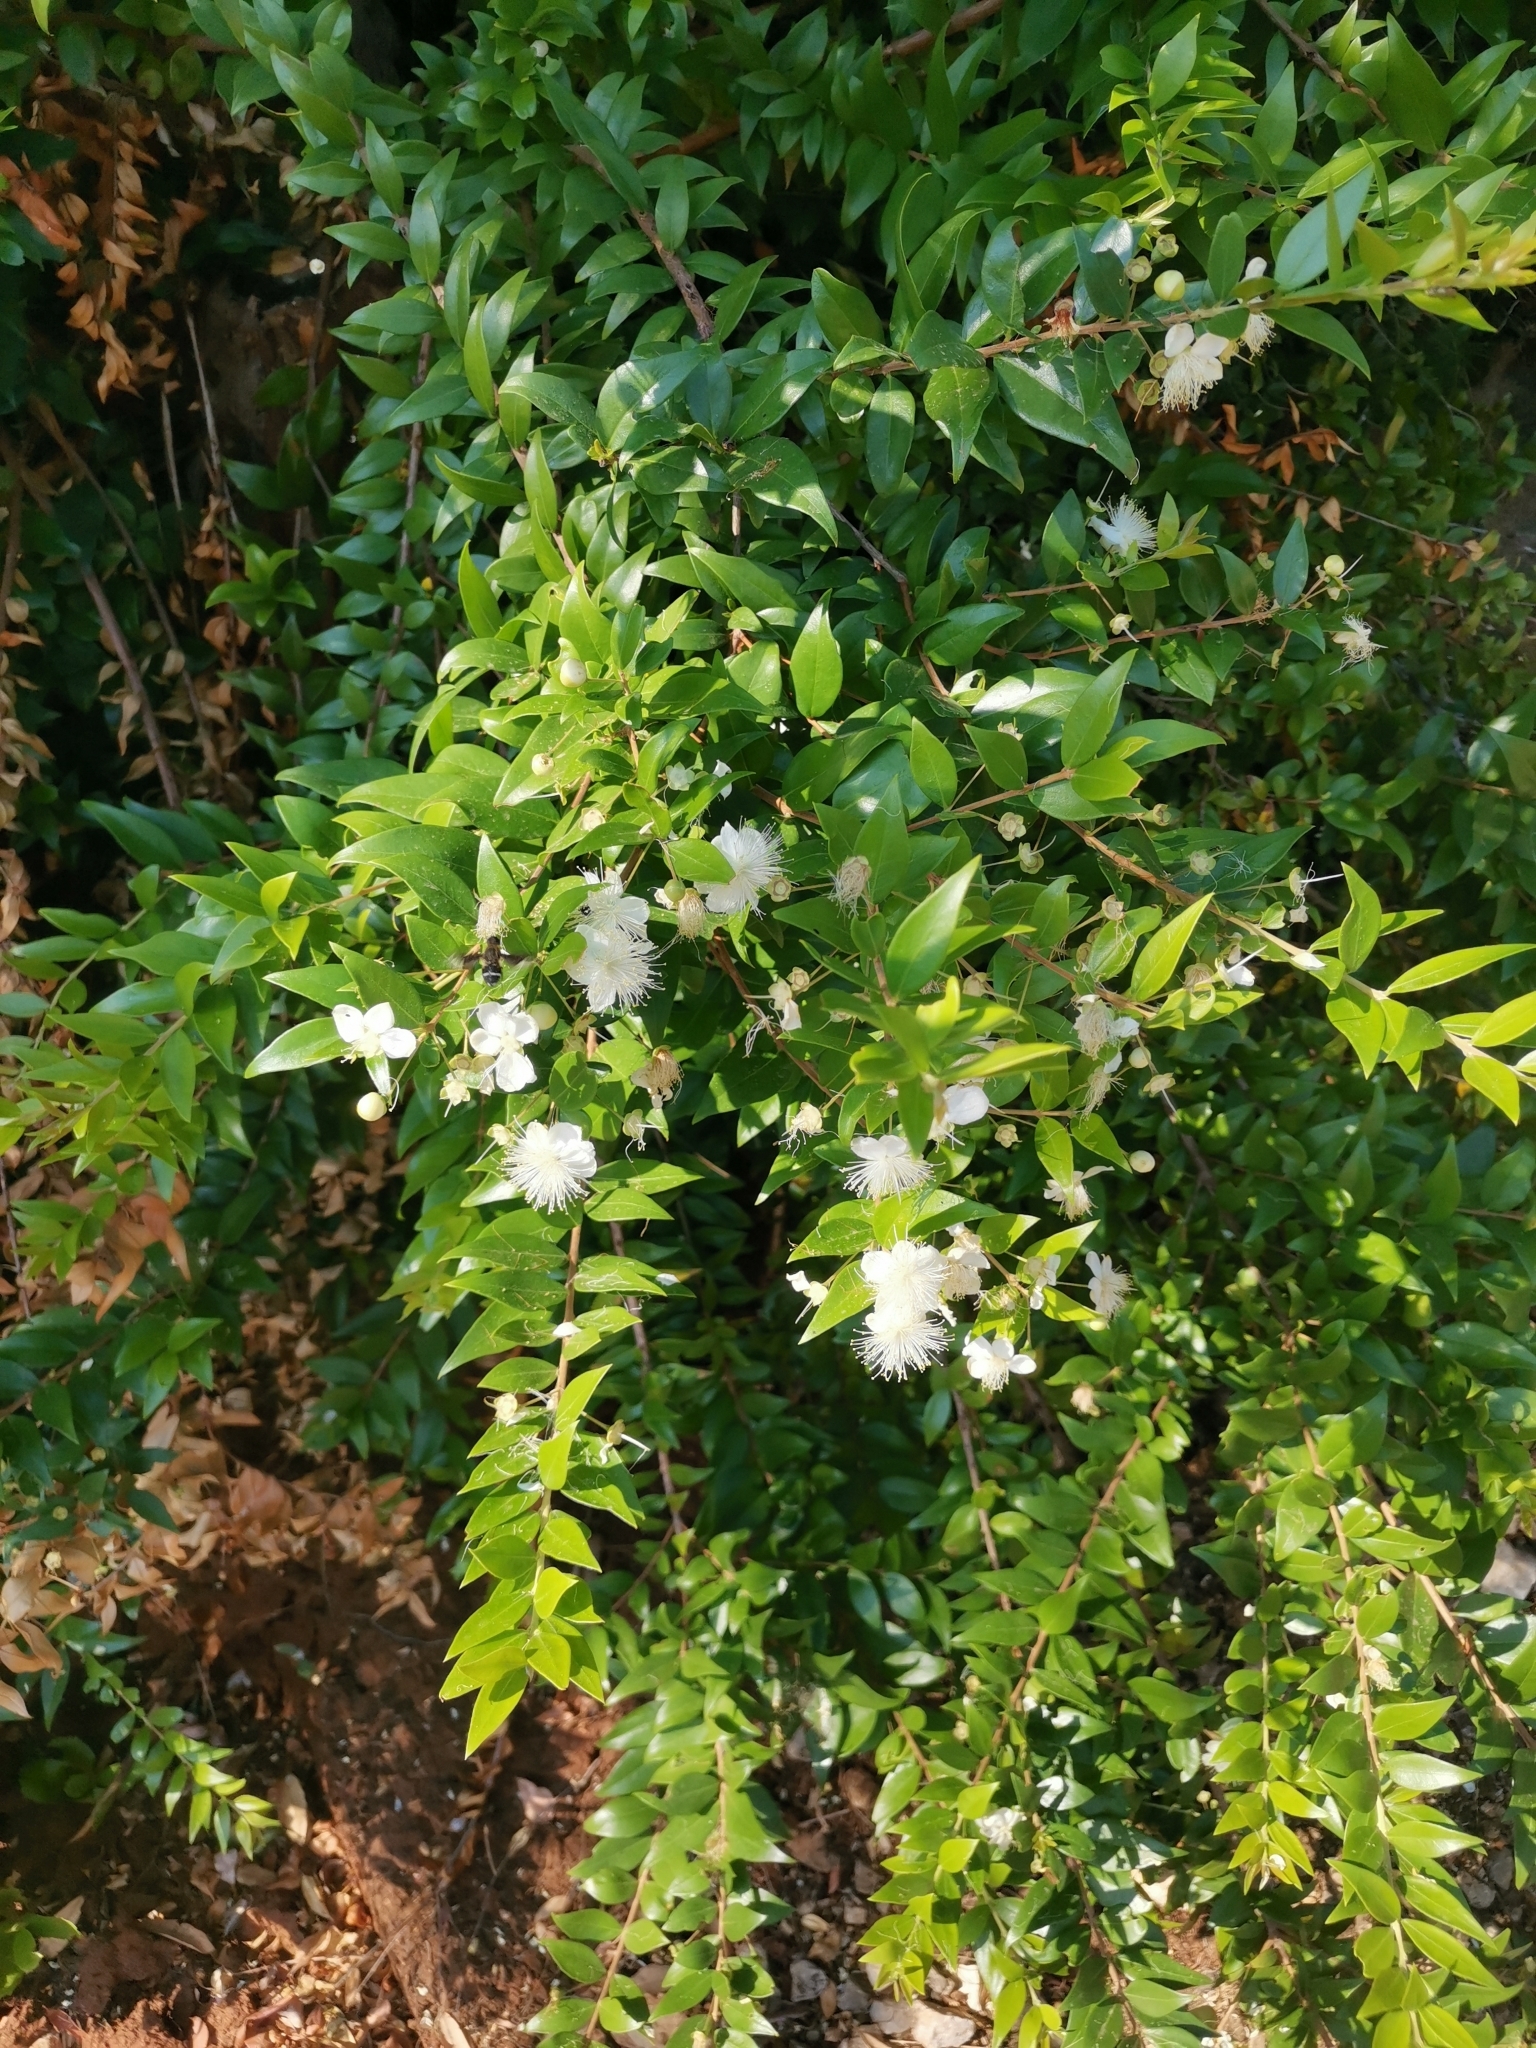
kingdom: Plantae
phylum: Tracheophyta
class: Magnoliopsida
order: Myrtales
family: Myrtaceae
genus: Myrtus
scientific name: Myrtus communis
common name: Myrtle
